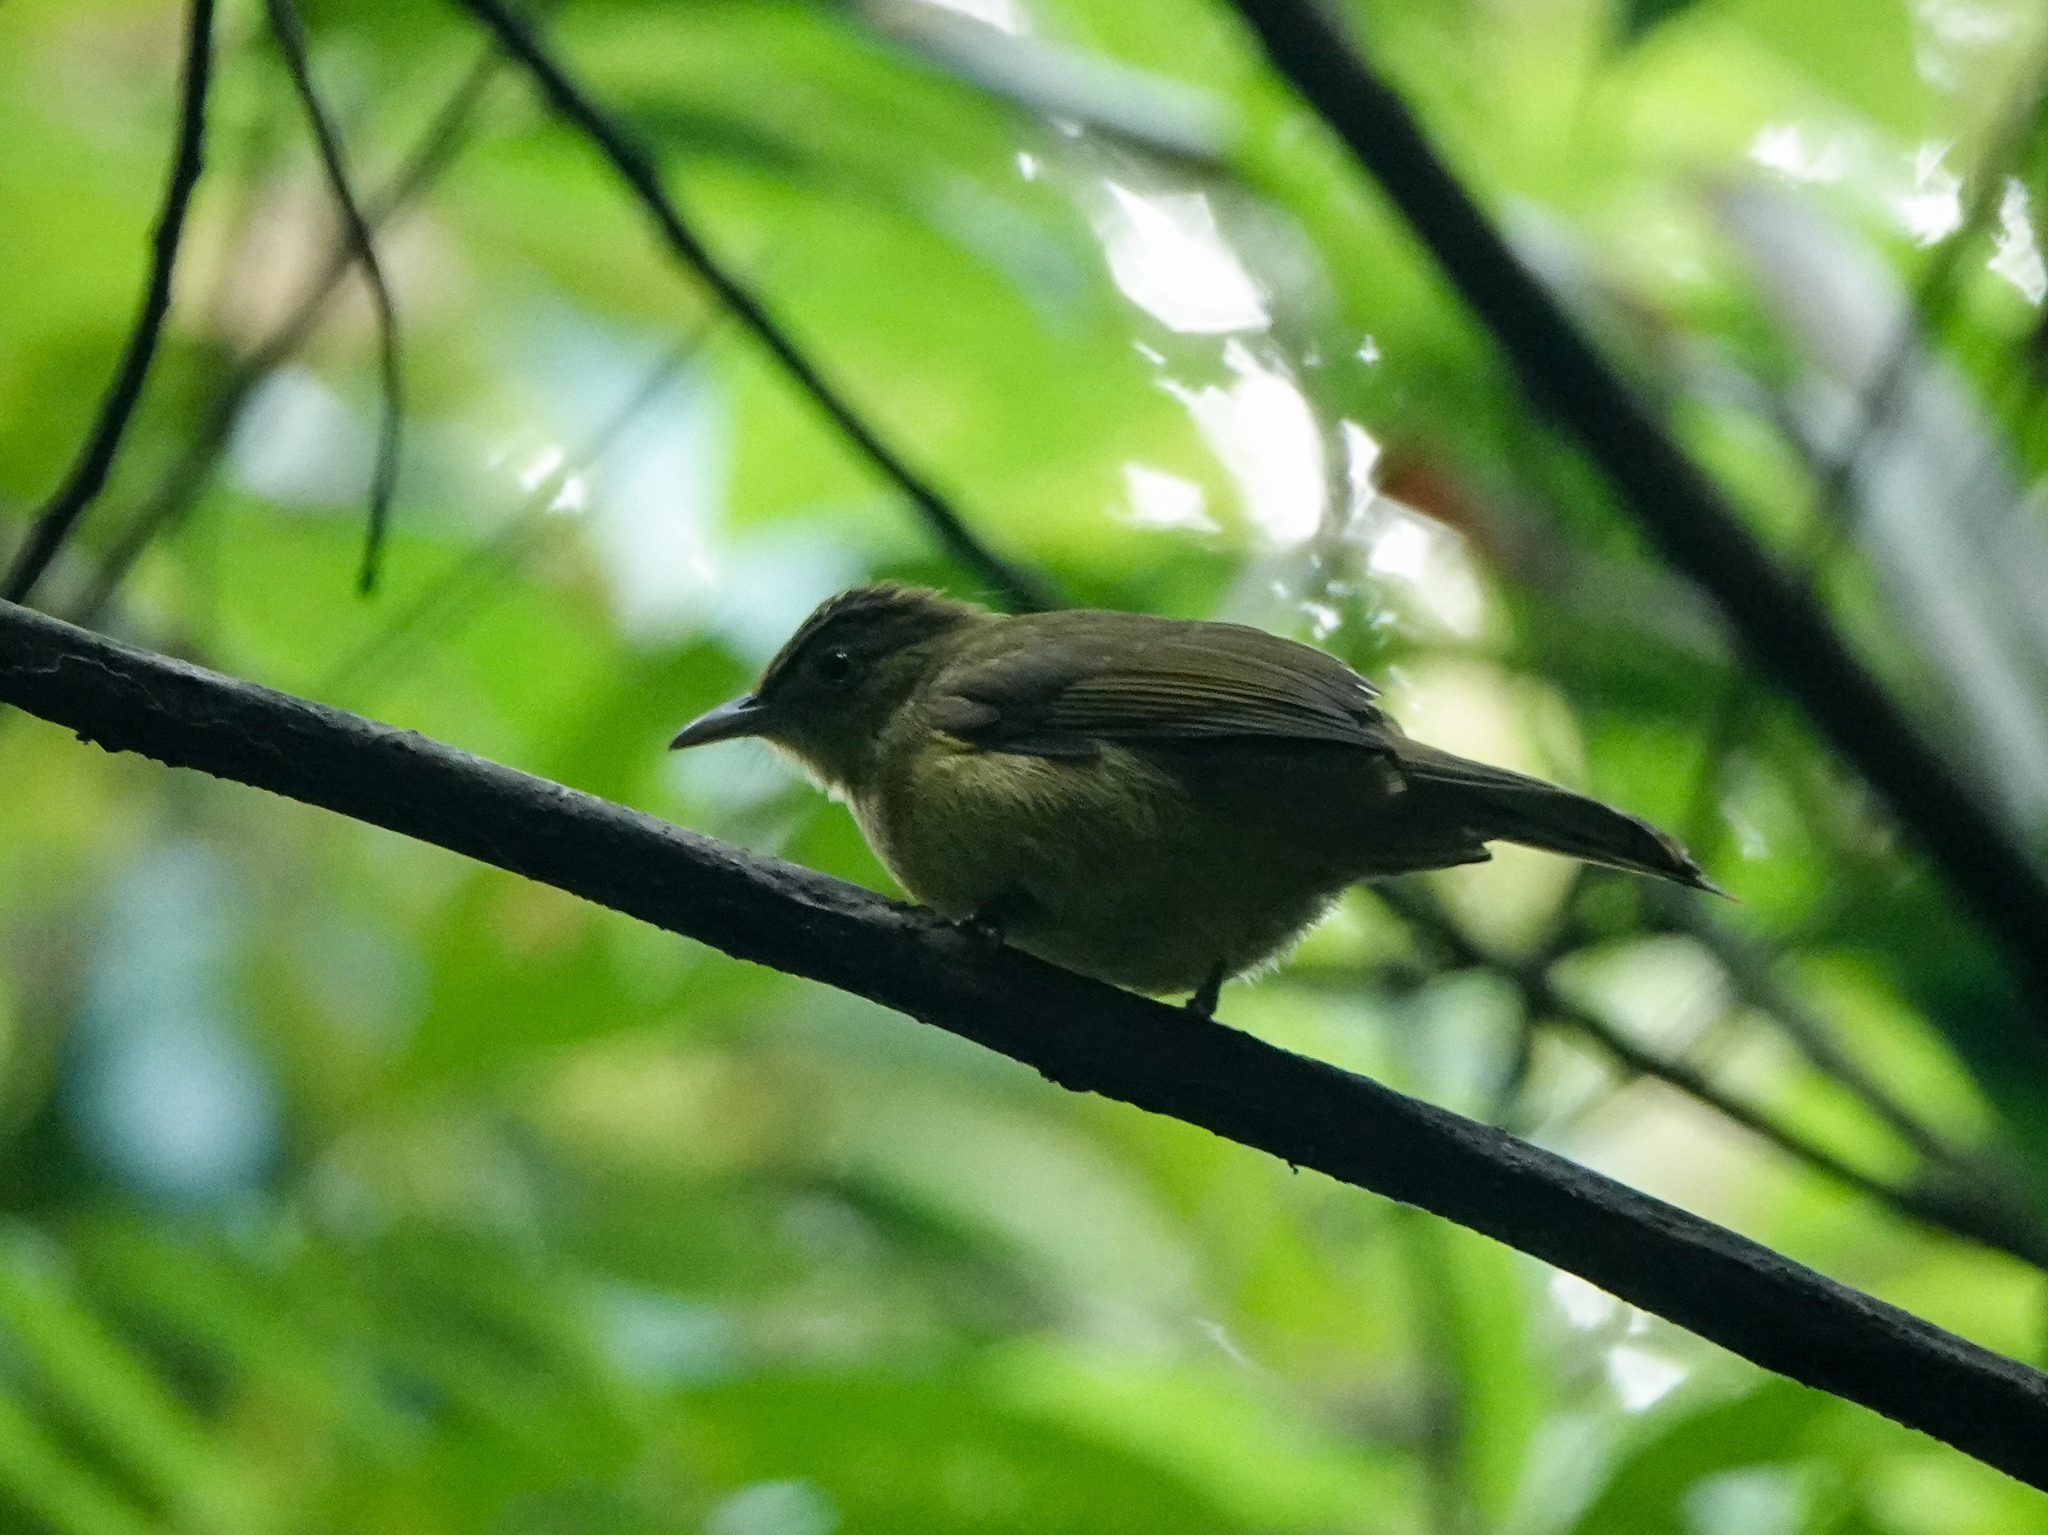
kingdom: Animalia
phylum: Chordata
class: Aves
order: Passeriformes
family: Pycnonotidae
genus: Iole
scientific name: Iole virescens
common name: Olive bulbul
